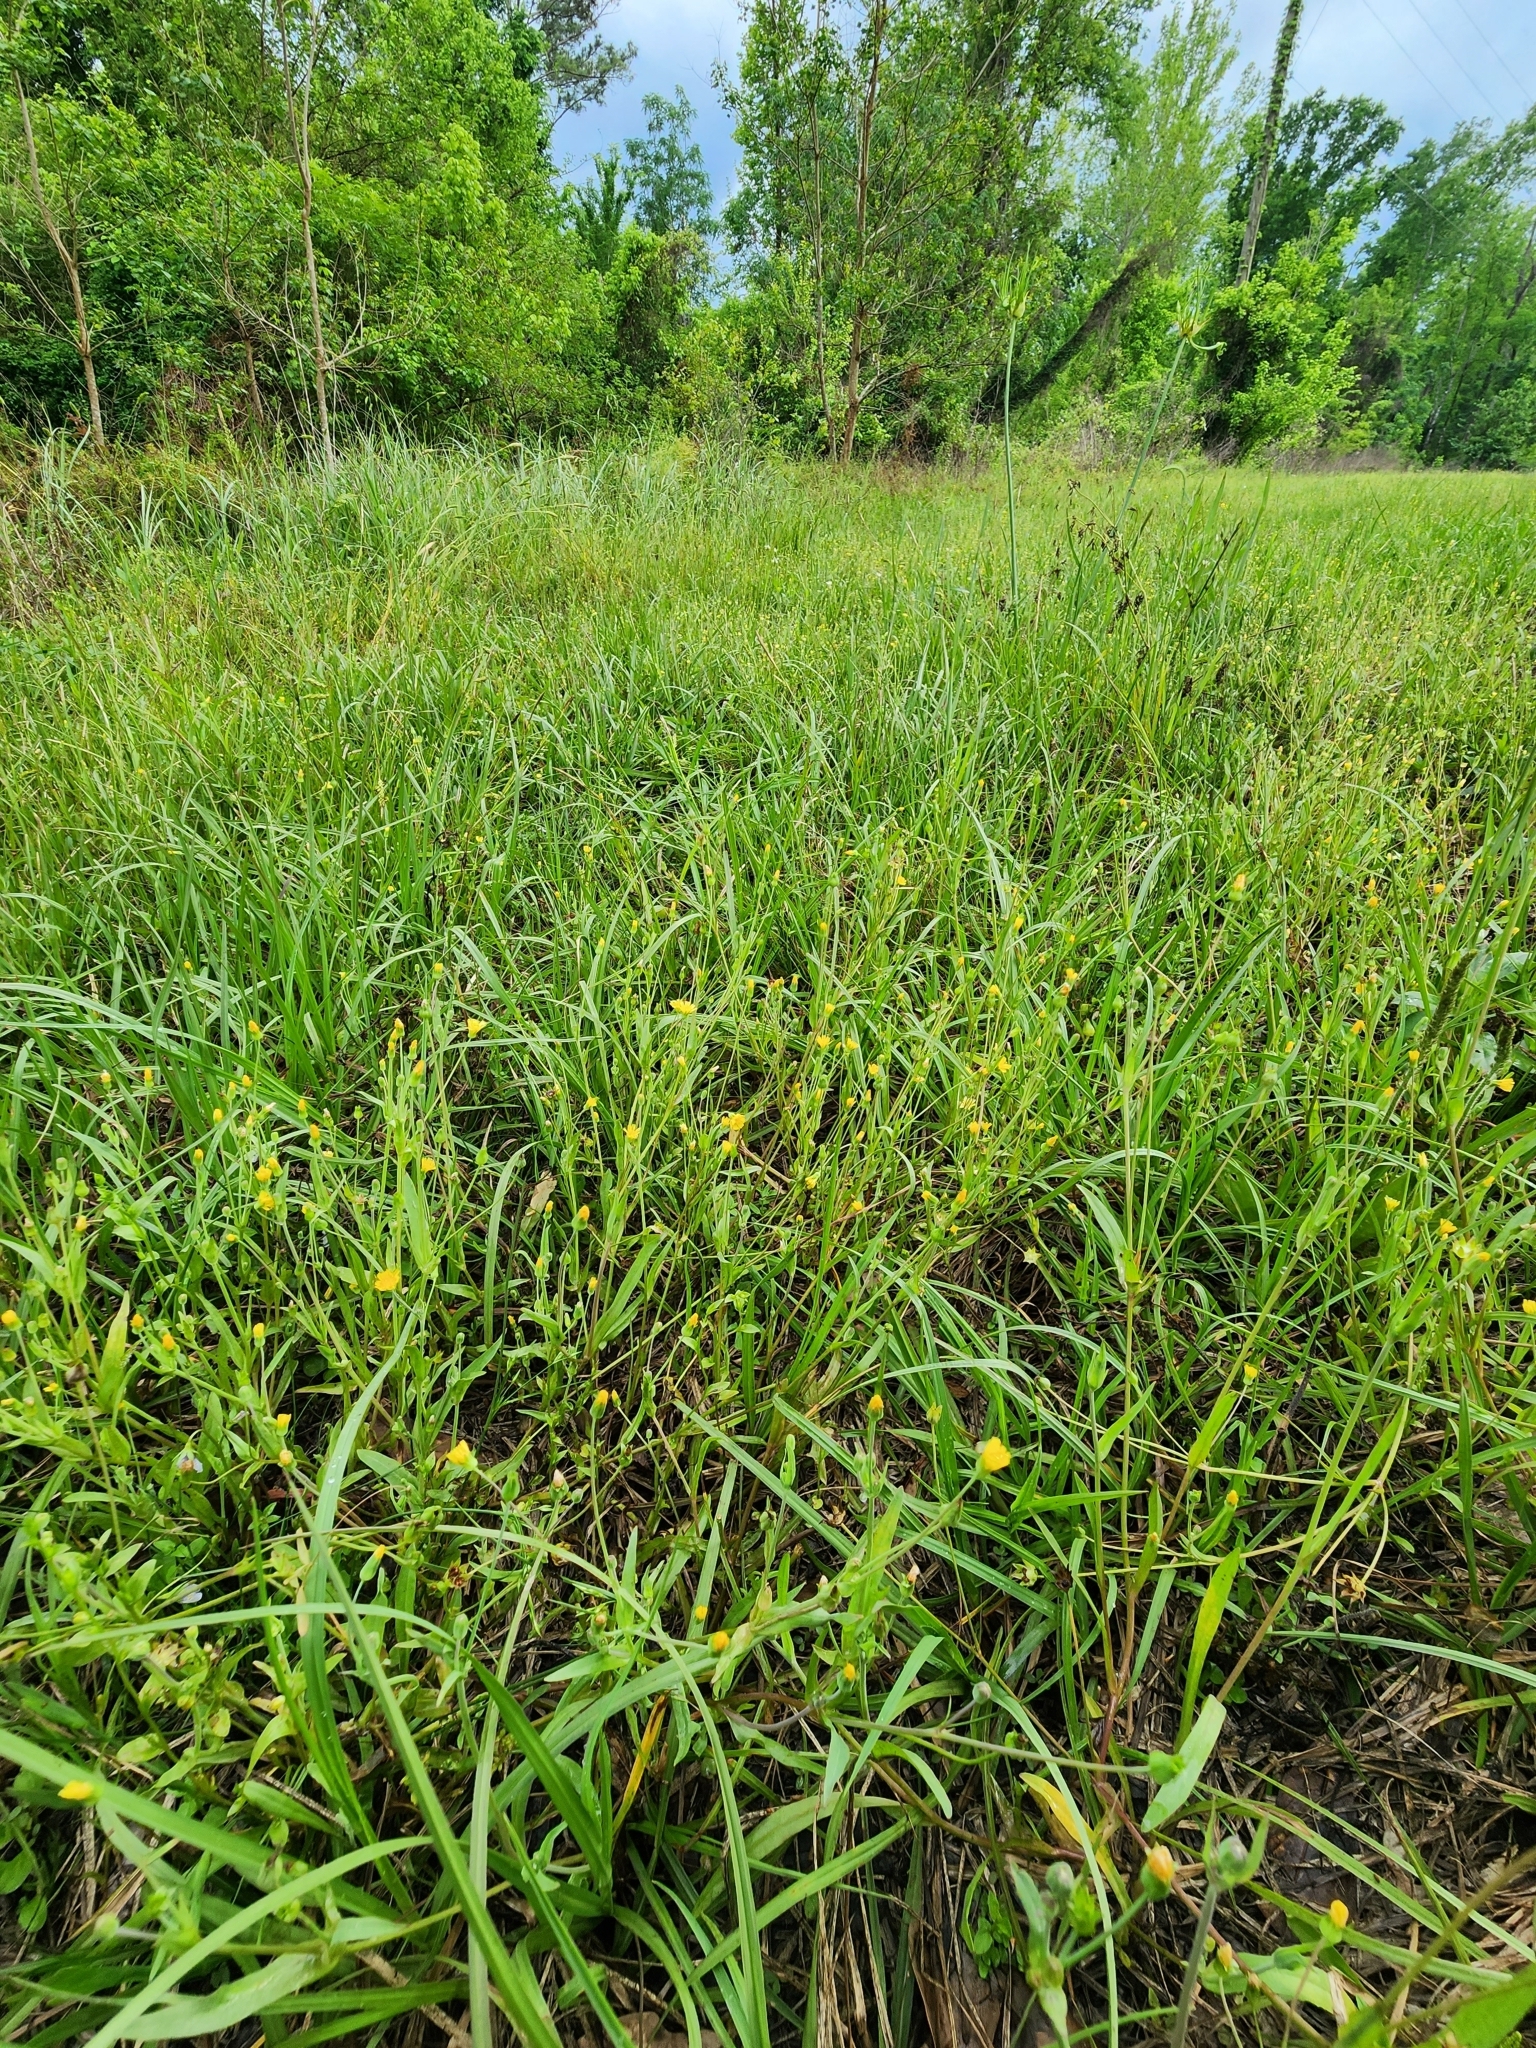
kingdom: Plantae
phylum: Tracheophyta
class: Magnoliopsida
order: Lamiales
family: Mazaceae
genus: Mazus
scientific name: Mazus pumilus
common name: Japanese mazus
